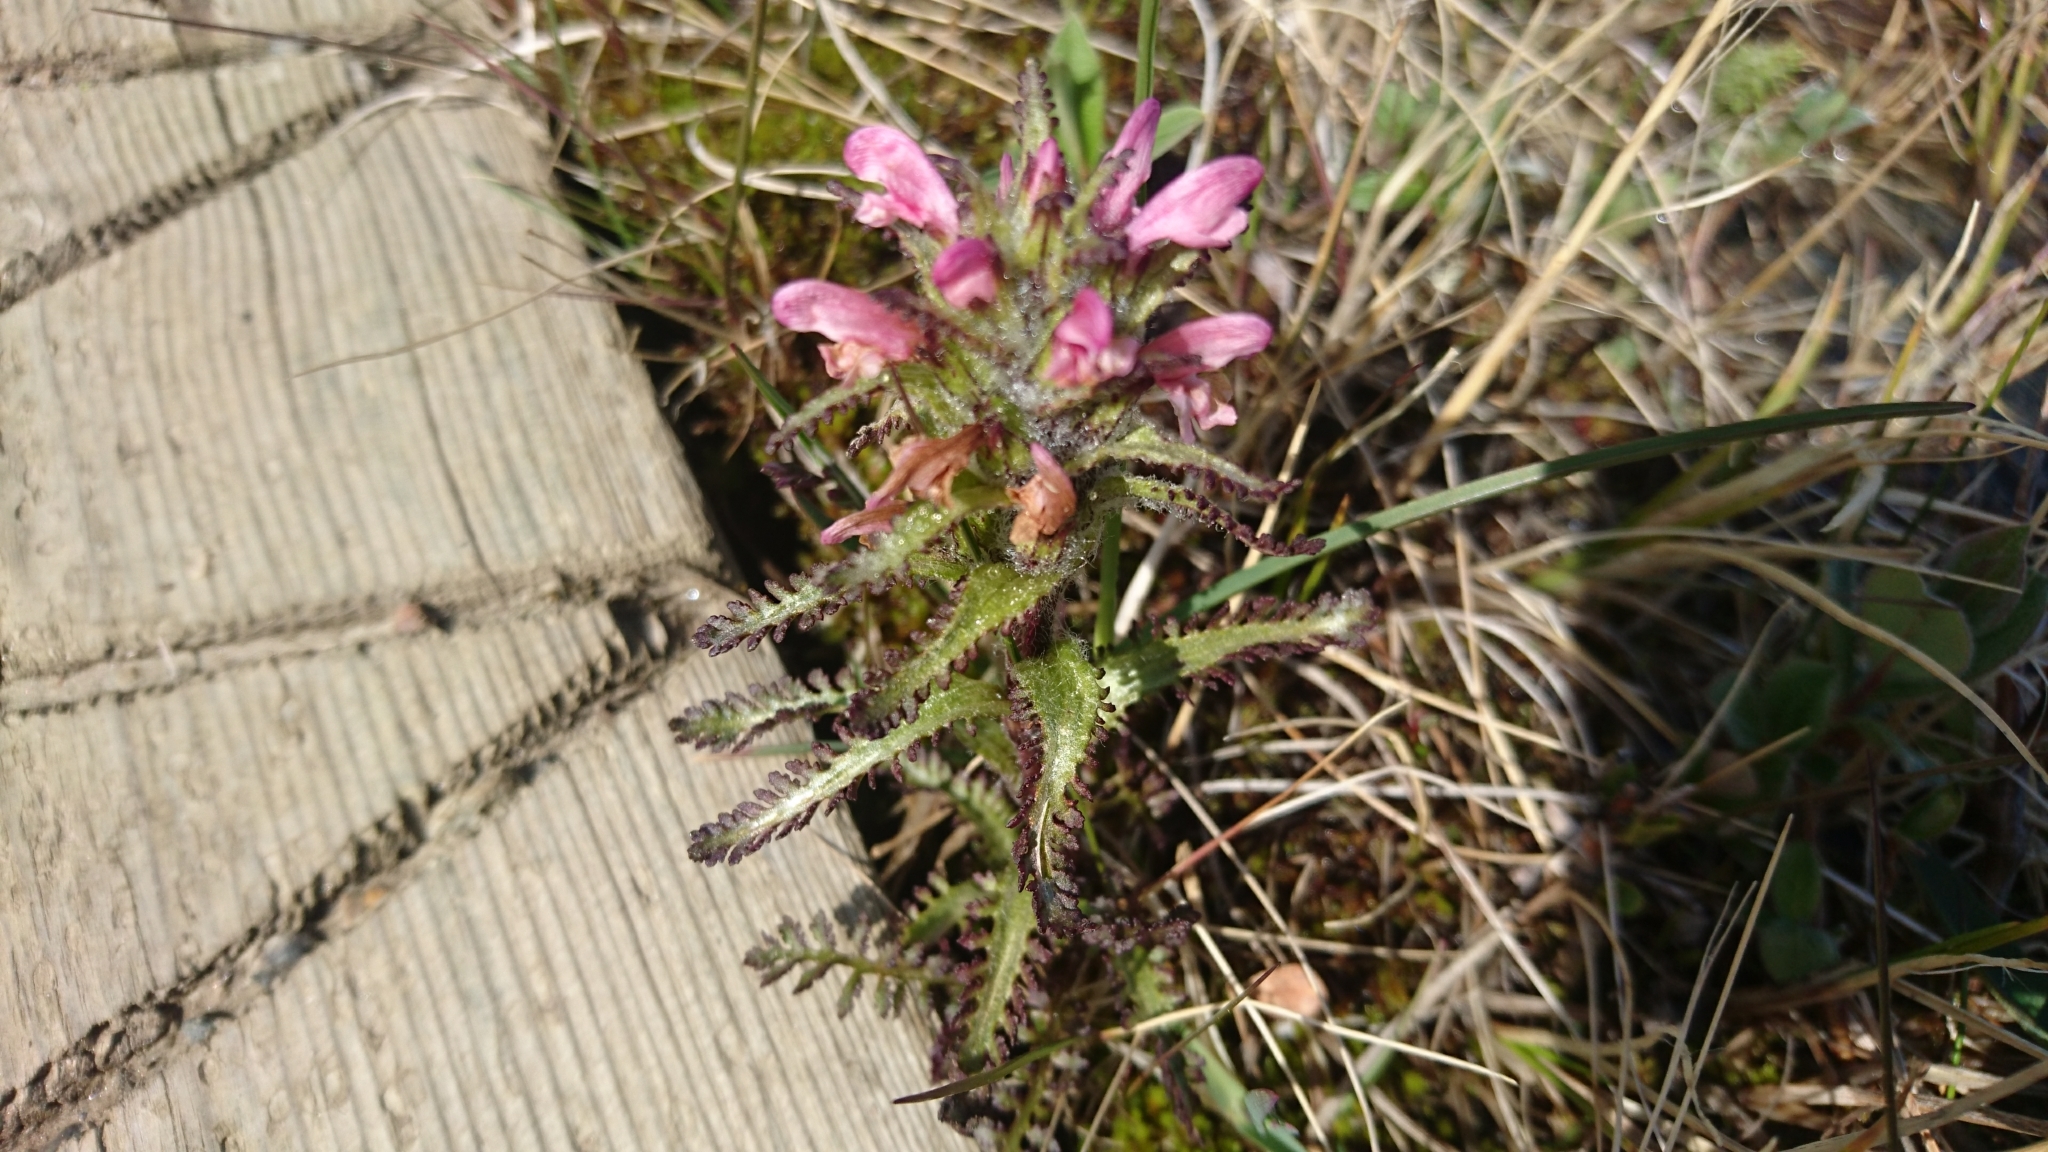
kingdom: Plantae
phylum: Tracheophyta
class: Magnoliopsida
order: Lamiales
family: Orobanchaceae
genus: Pedicularis
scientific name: Pedicularis hirsuta
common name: Hairy lousewort
